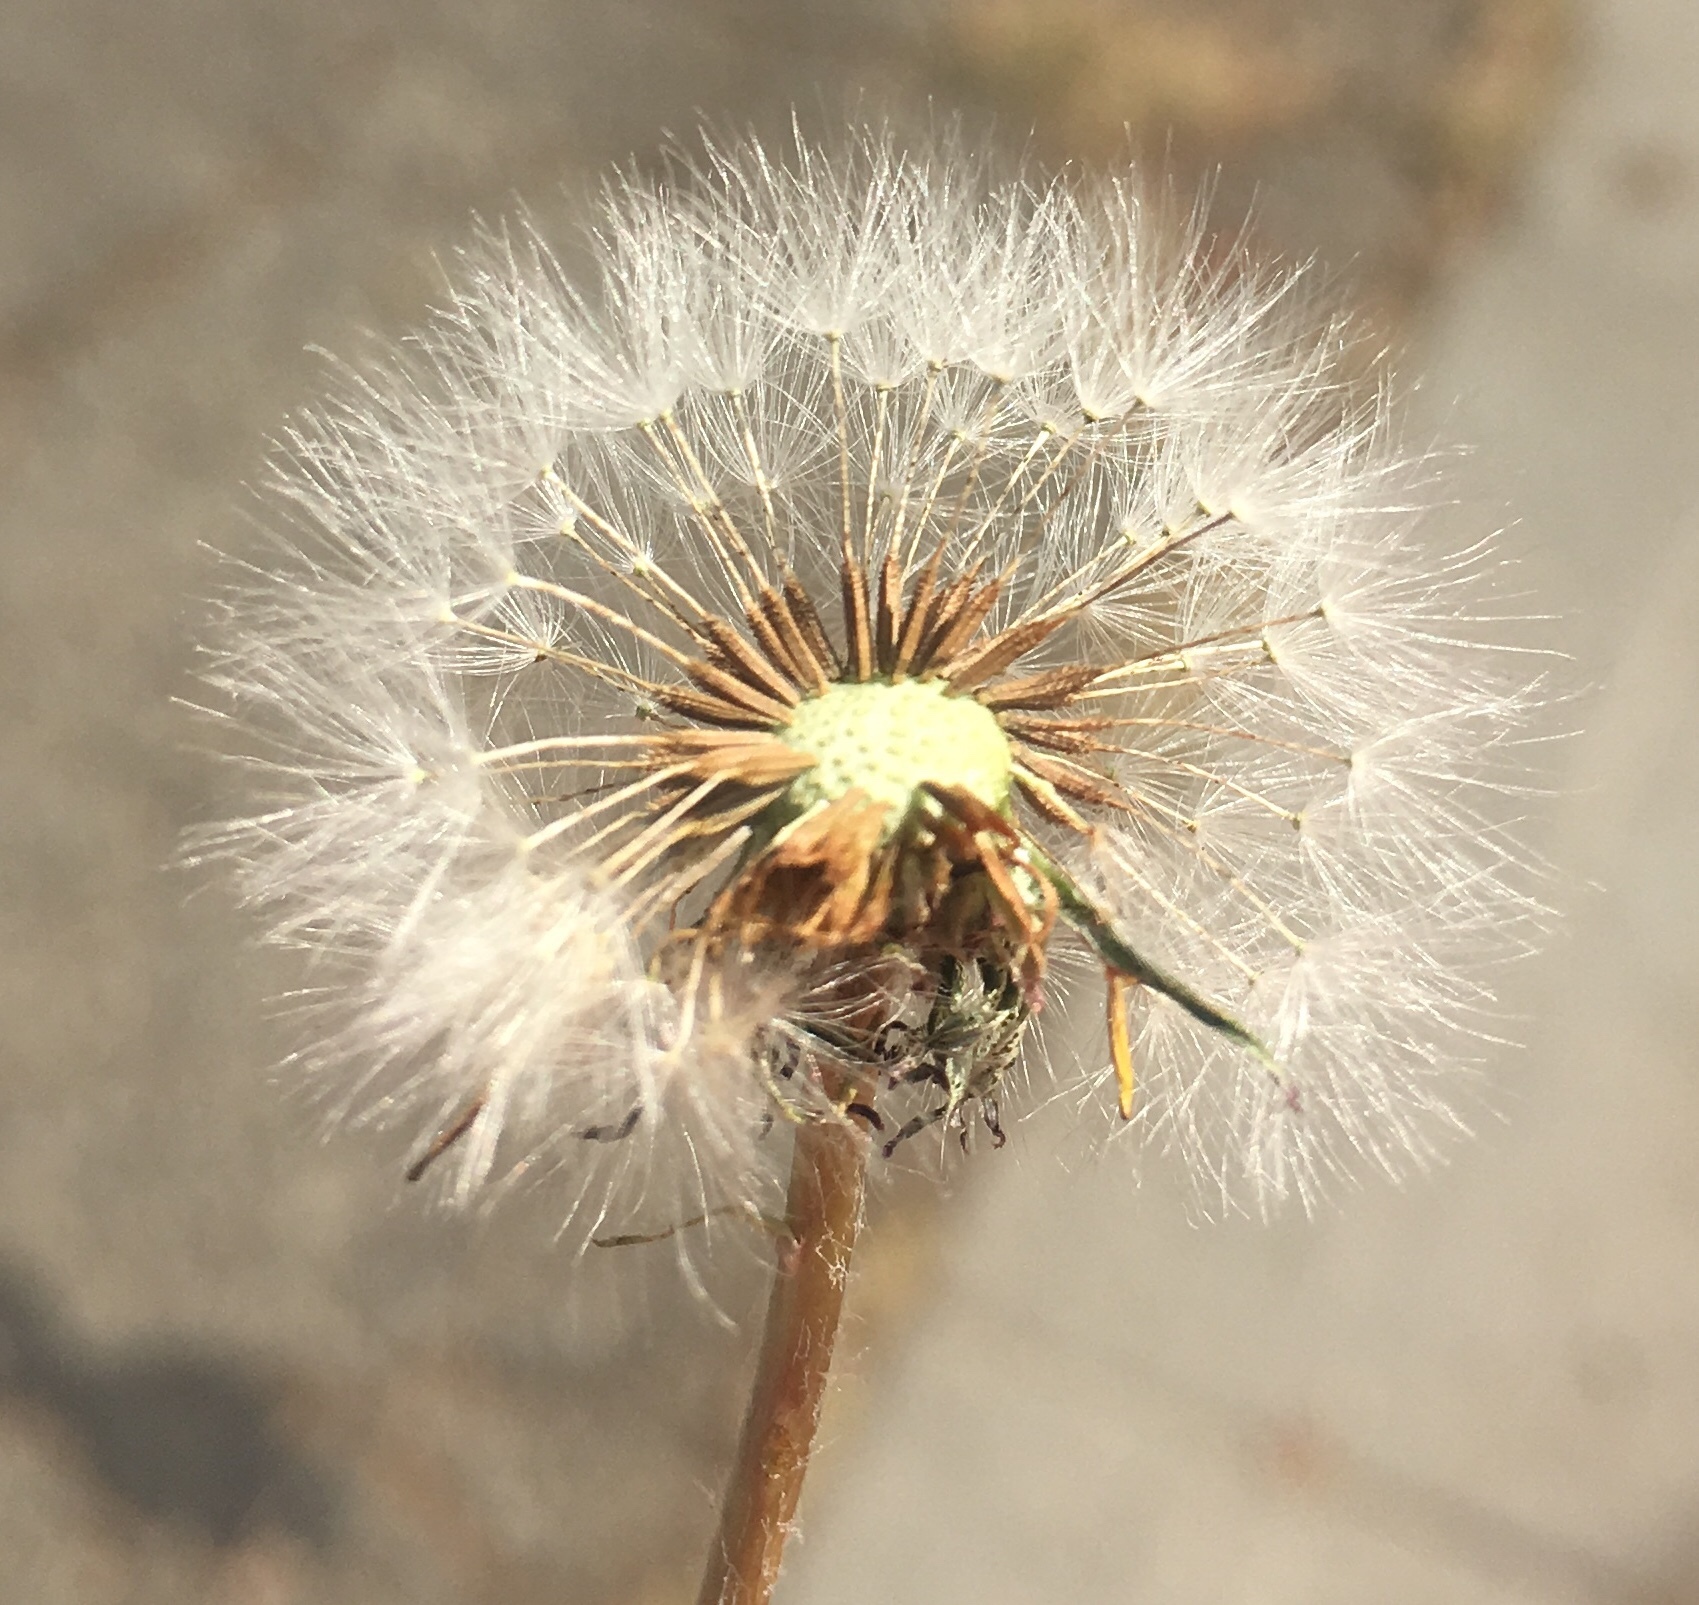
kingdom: Plantae
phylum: Tracheophyta
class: Magnoliopsida
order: Asterales
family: Asteraceae
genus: Taraxacum
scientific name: Taraxacum officinale
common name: Common dandelion
